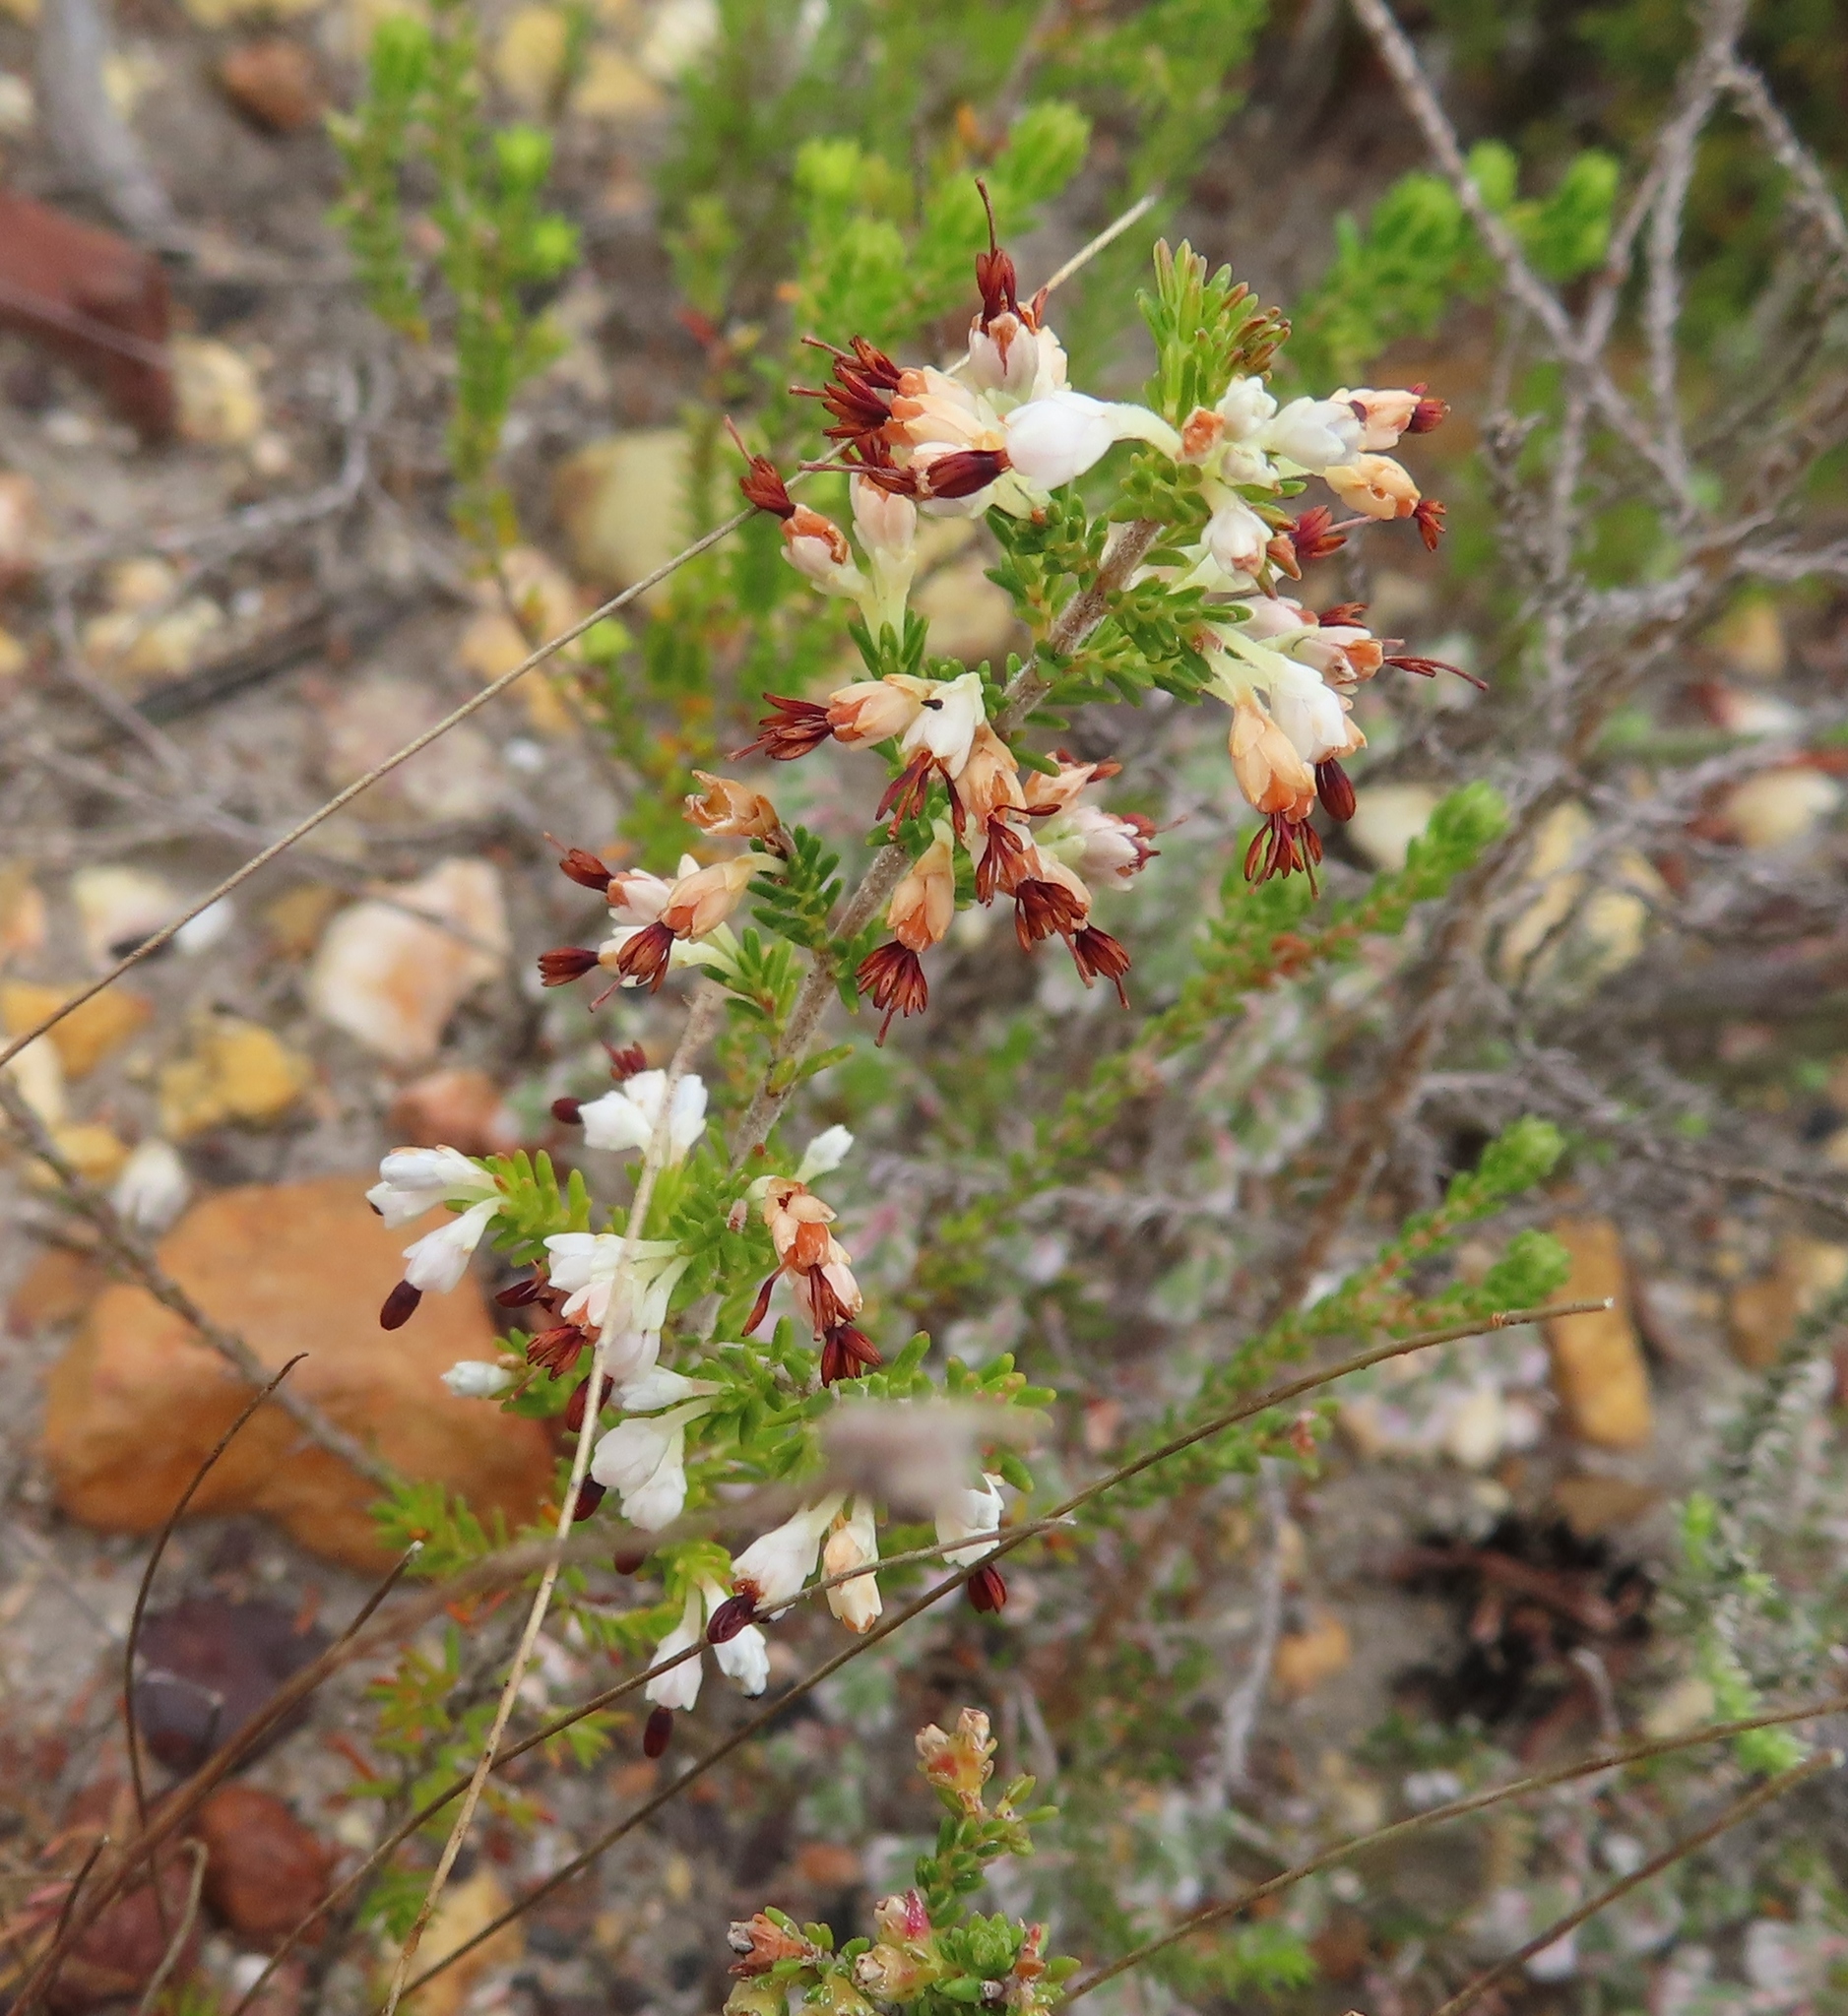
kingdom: Plantae
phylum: Tracheophyta
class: Magnoliopsida
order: Ericales
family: Ericaceae
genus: Erica
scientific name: Erica imbricata
